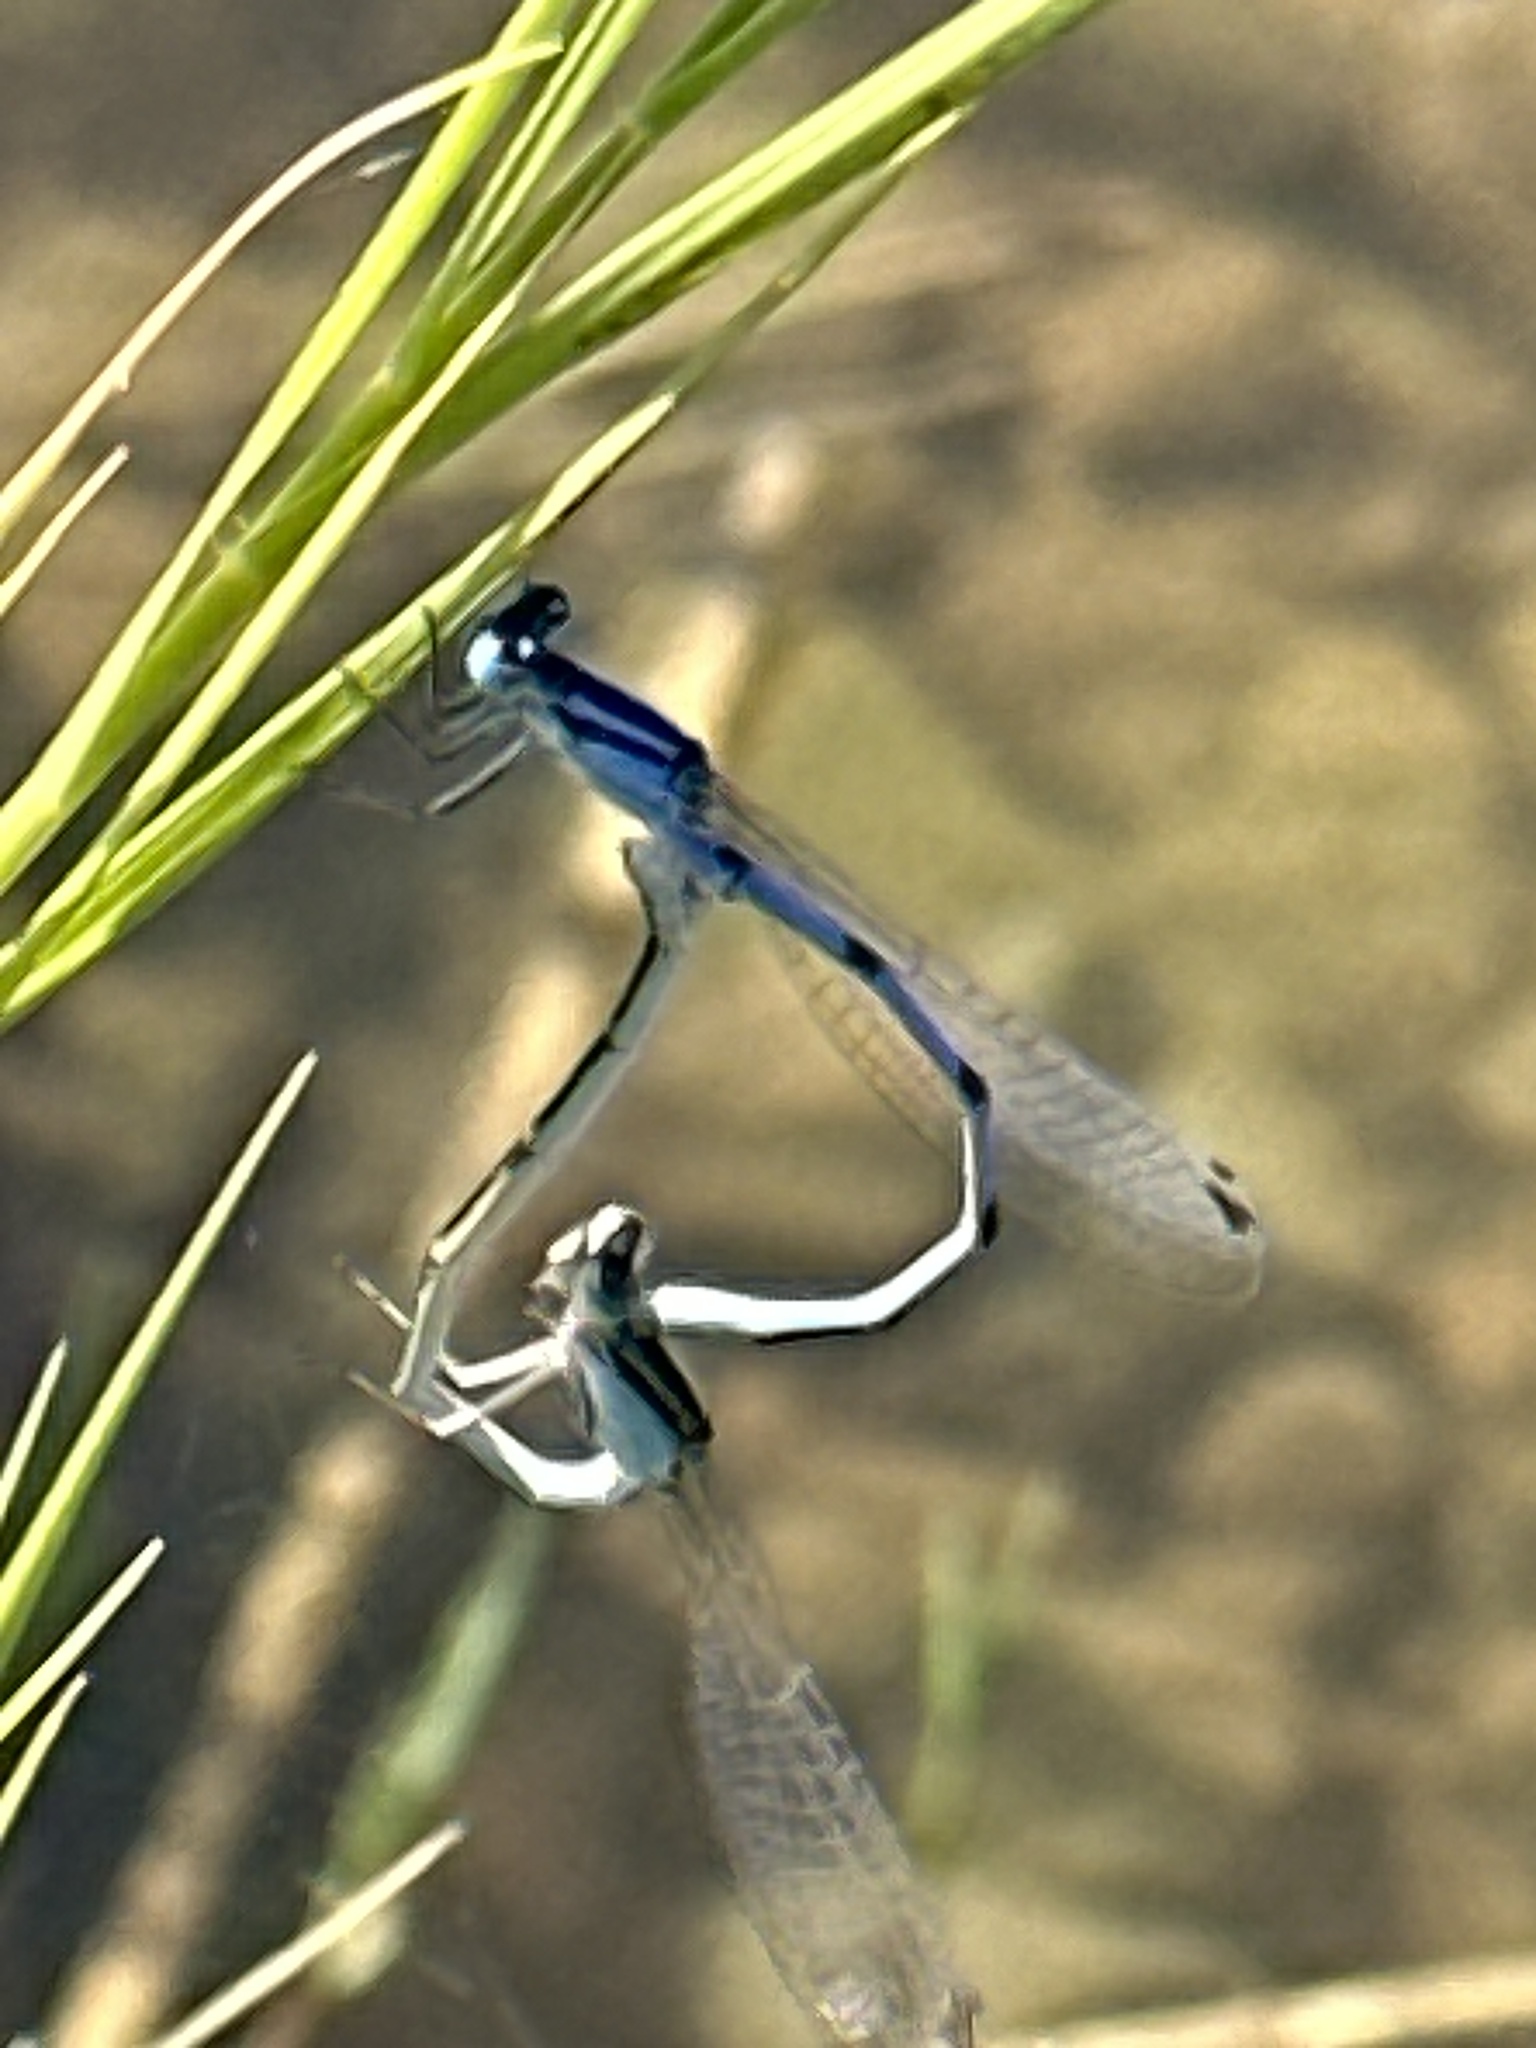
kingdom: Animalia
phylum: Arthropoda
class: Insecta
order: Odonata
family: Coenagrionidae
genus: Enallagma
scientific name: Enallagma civile
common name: Damselfly
